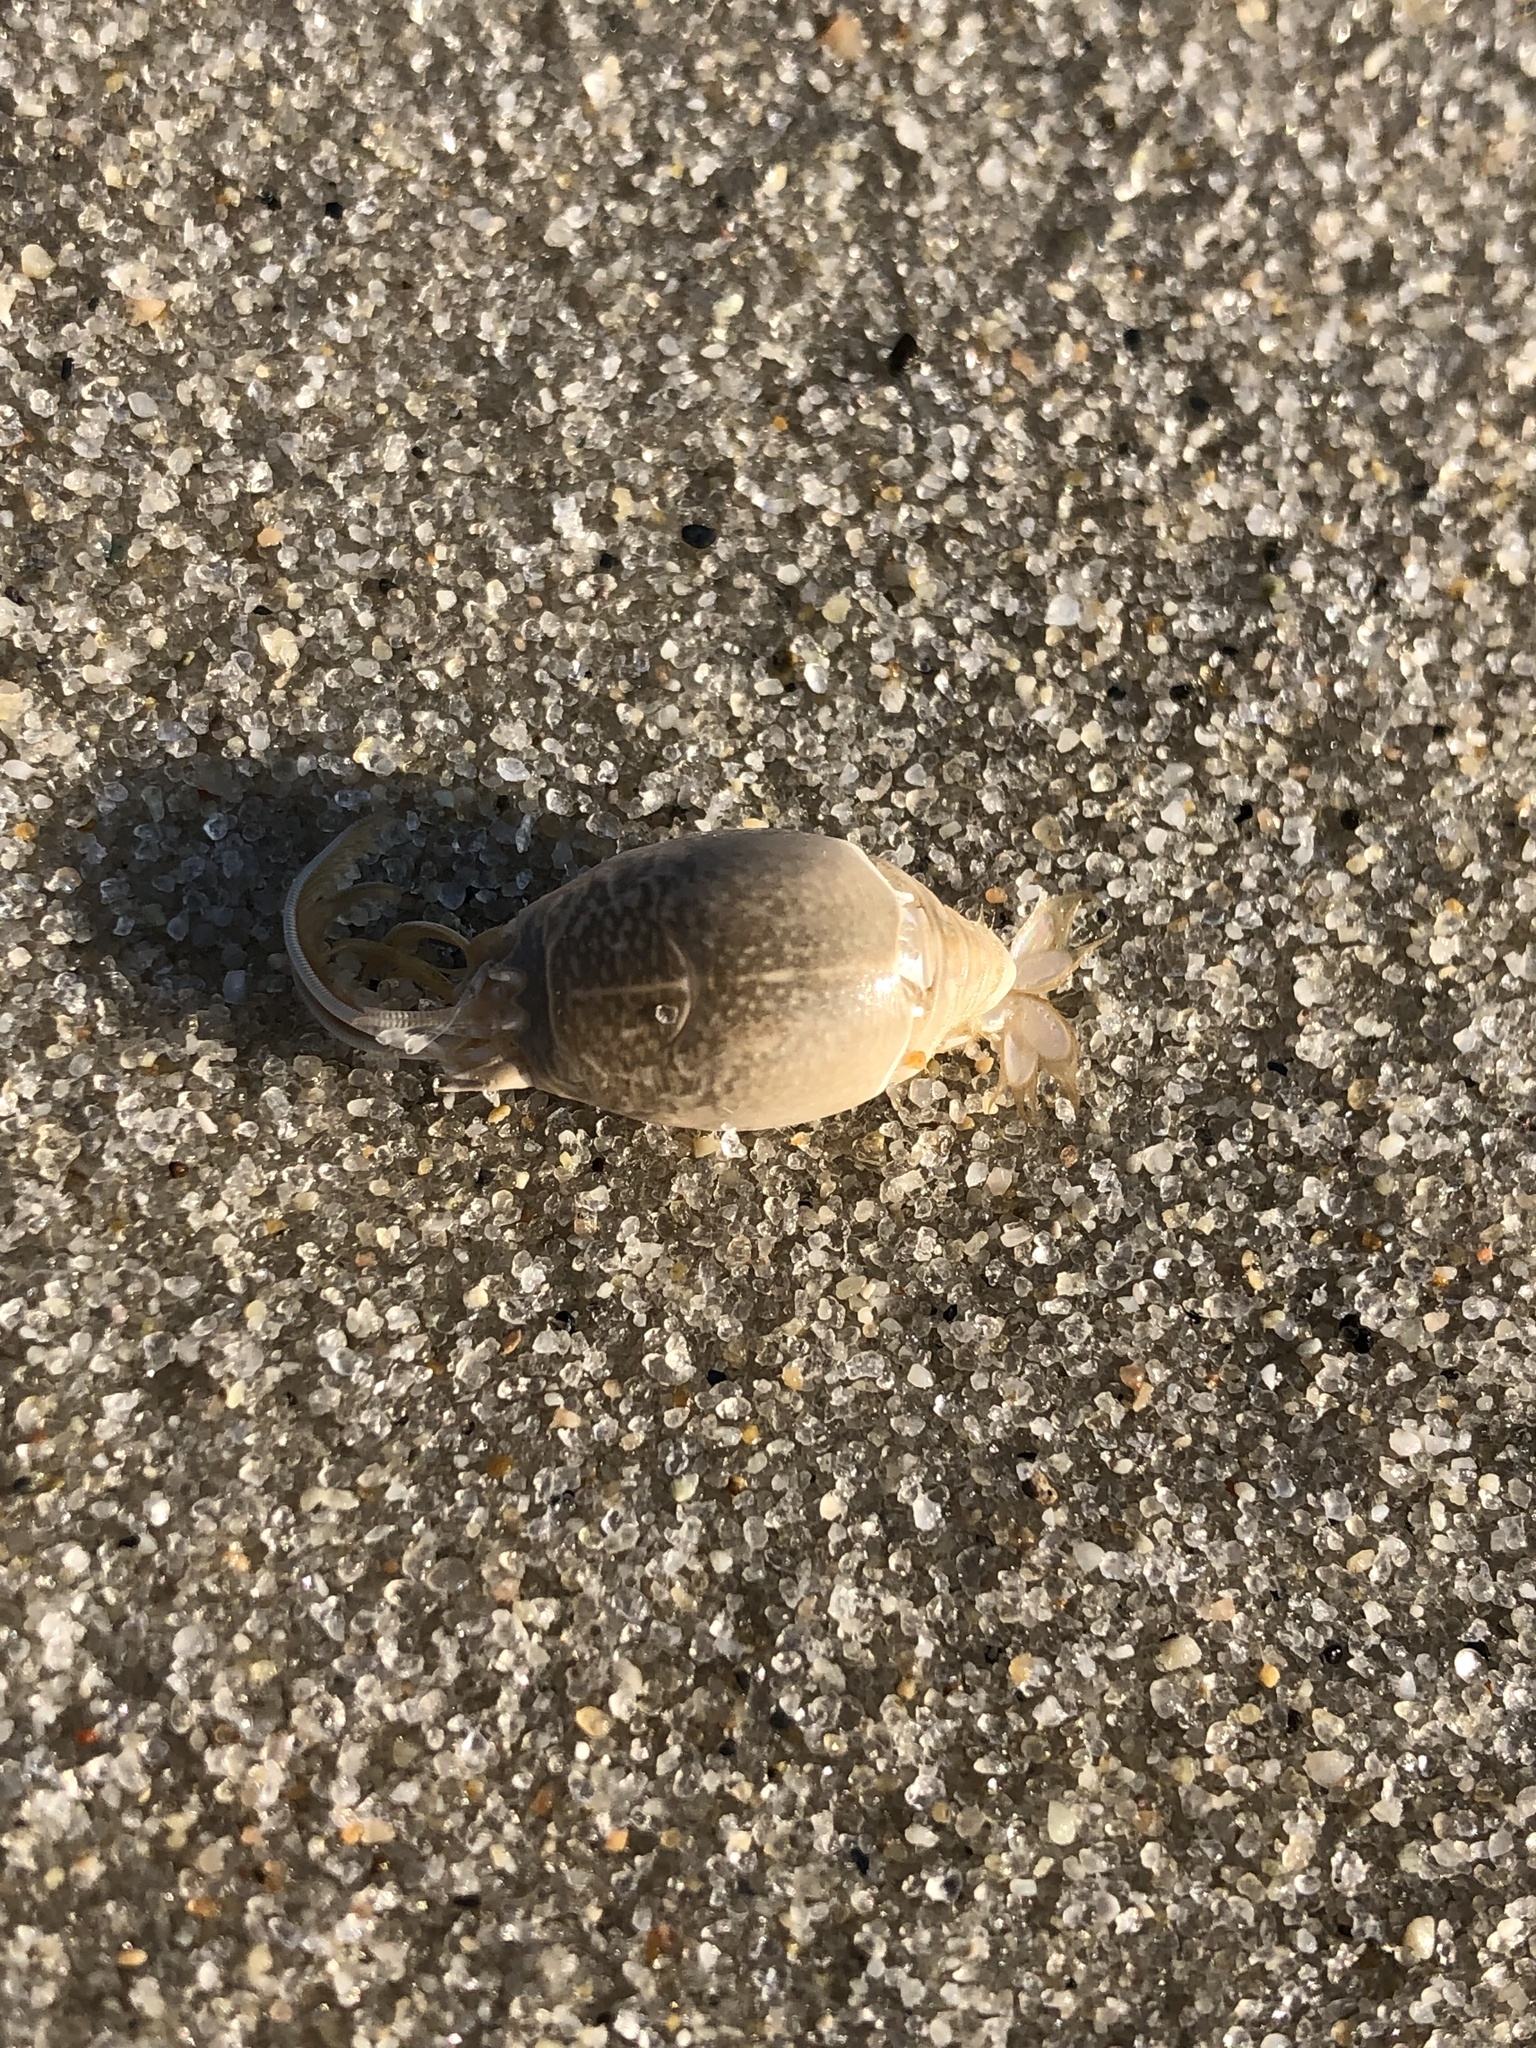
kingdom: Animalia
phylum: Arthropoda
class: Malacostraca
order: Decapoda
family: Hippidae
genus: Emerita
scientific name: Emerita talpoida
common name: Atlantic sand crab
